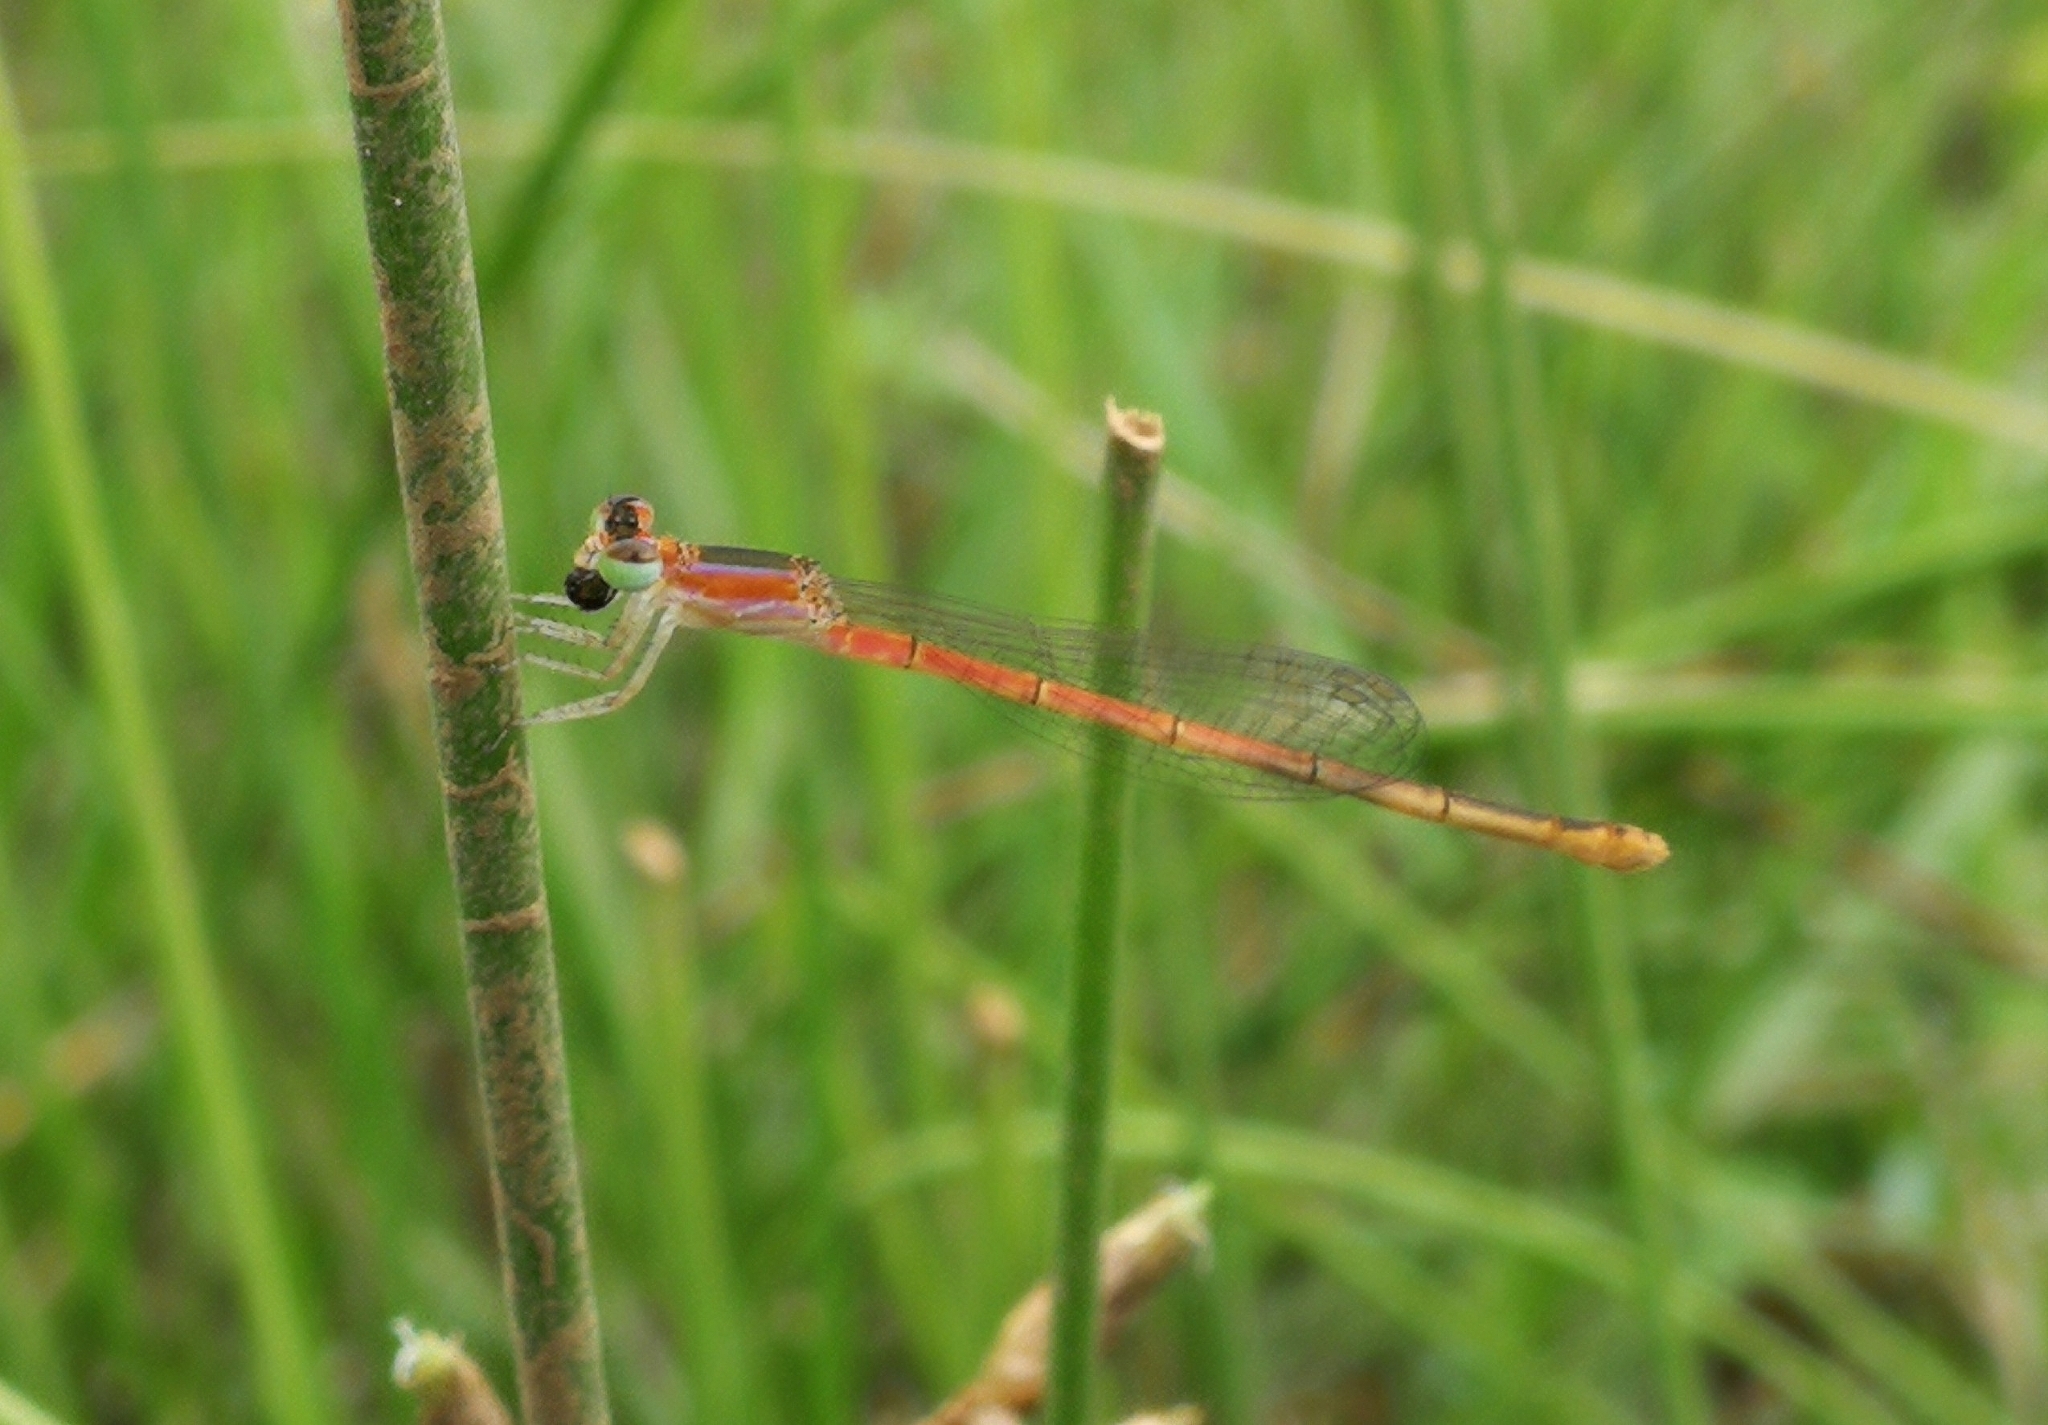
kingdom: Animalia
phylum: Arthropoda
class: Insecta
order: Odonata
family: Coenagrionidae
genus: Agriocnemis
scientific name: Agriocnemis pygmaea
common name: Pygmy wisp
